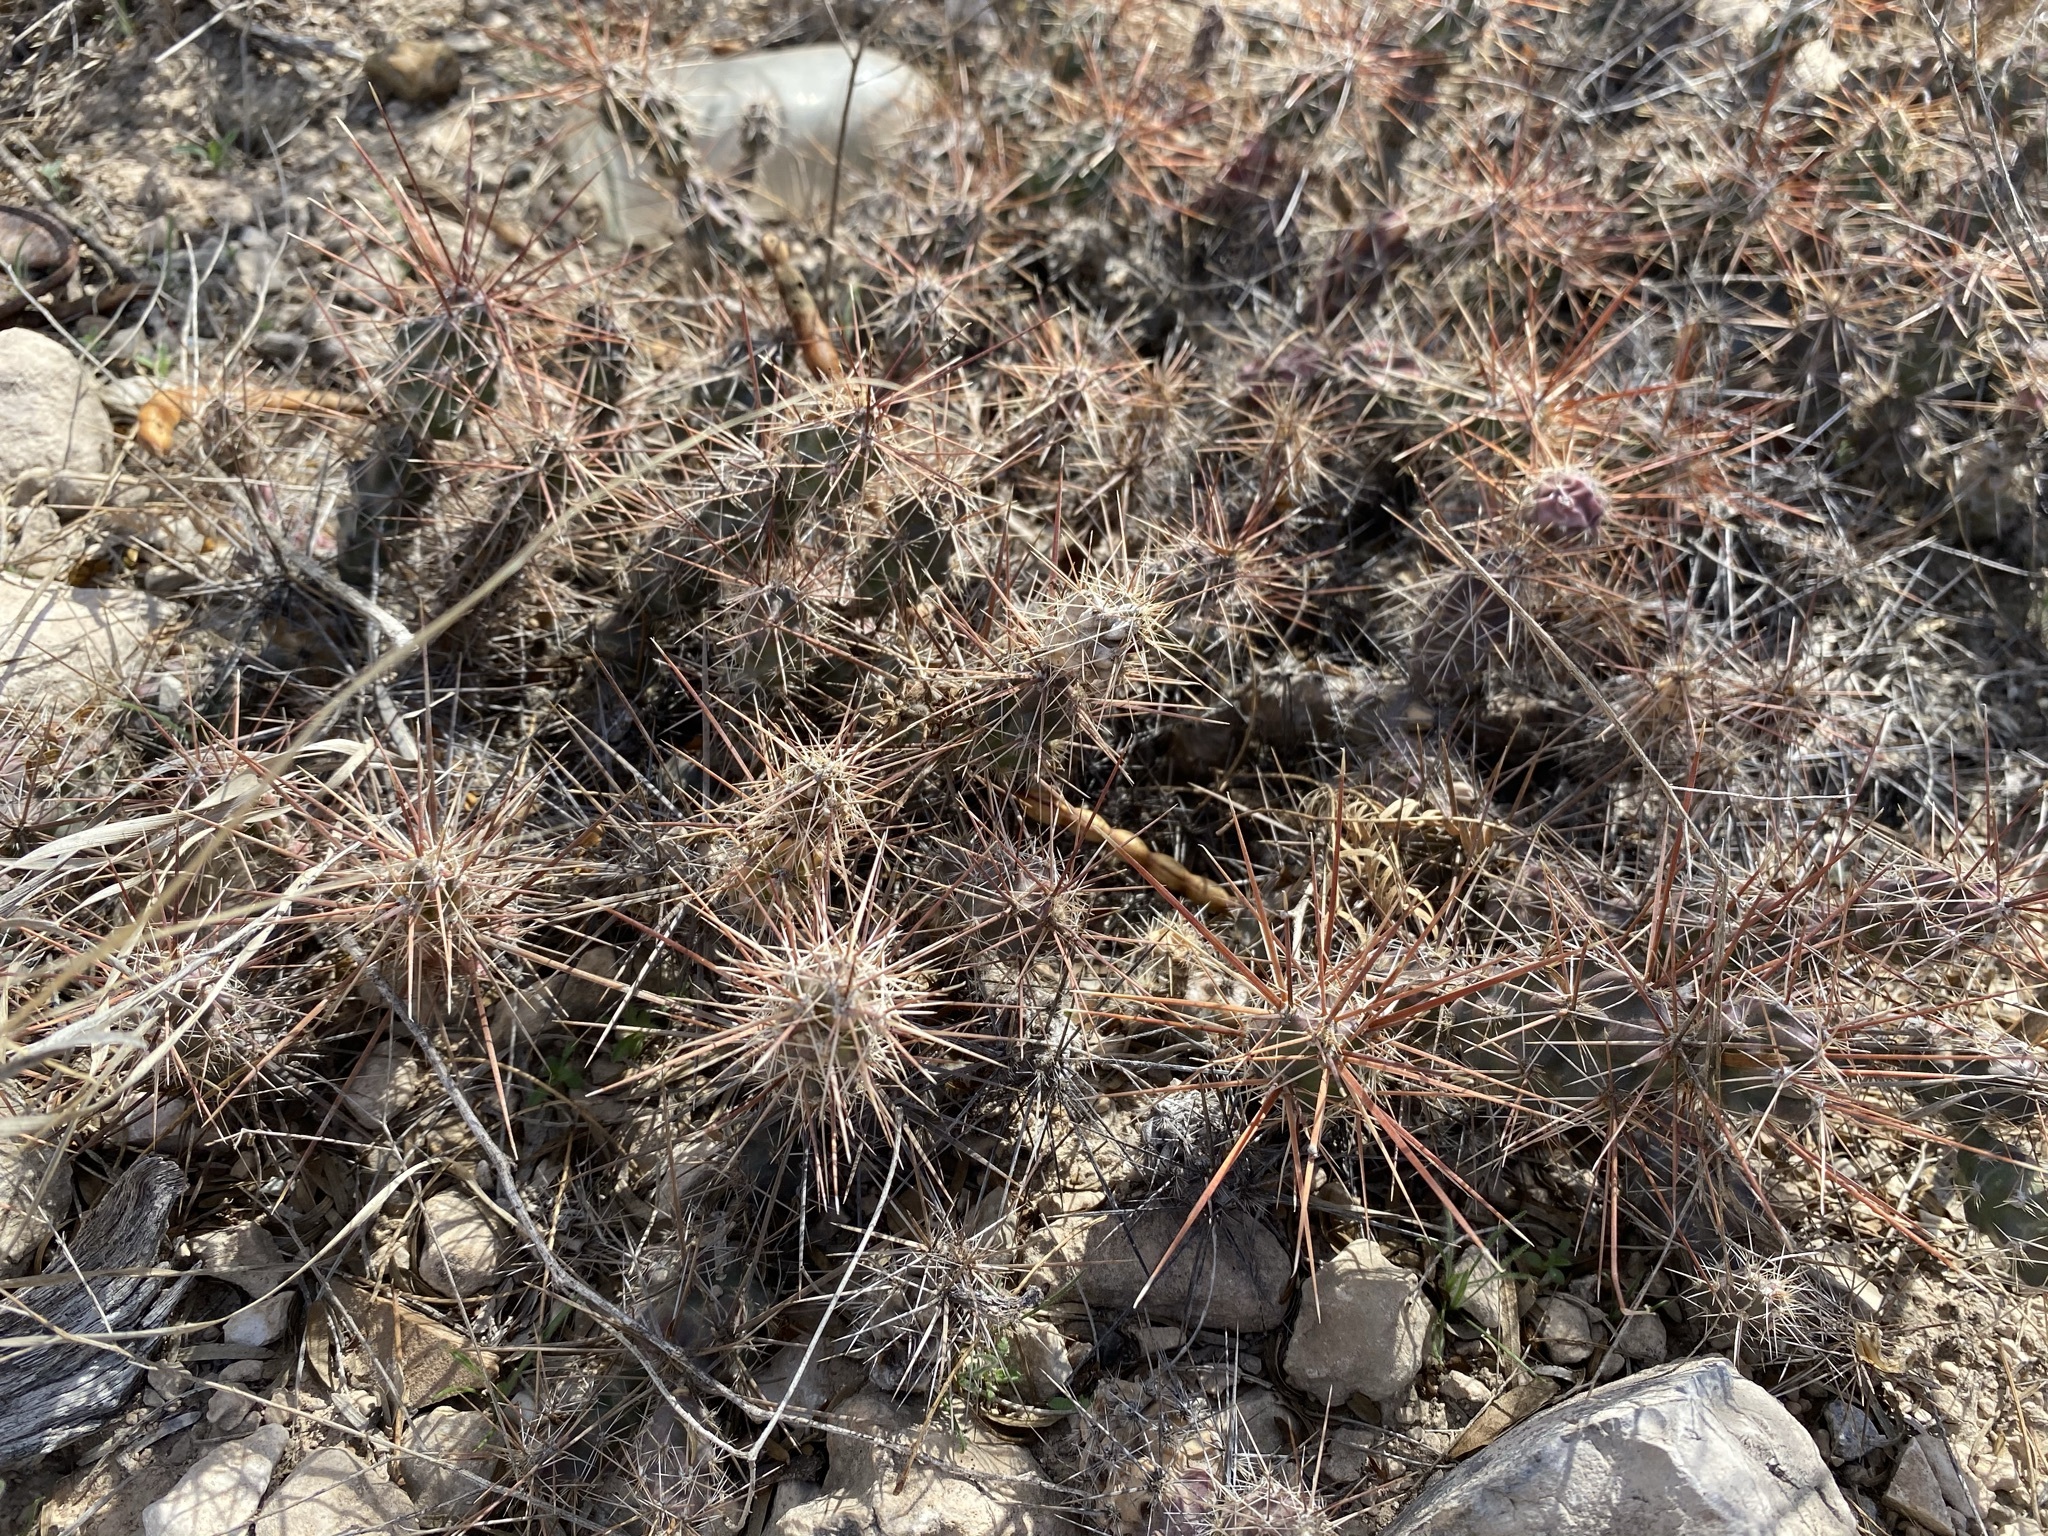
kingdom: Plantae
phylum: Tracheophyta
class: Magnoliopsida
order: Caryophyllales
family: Cactaceae
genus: Grusonia
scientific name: Grusonia schottii
